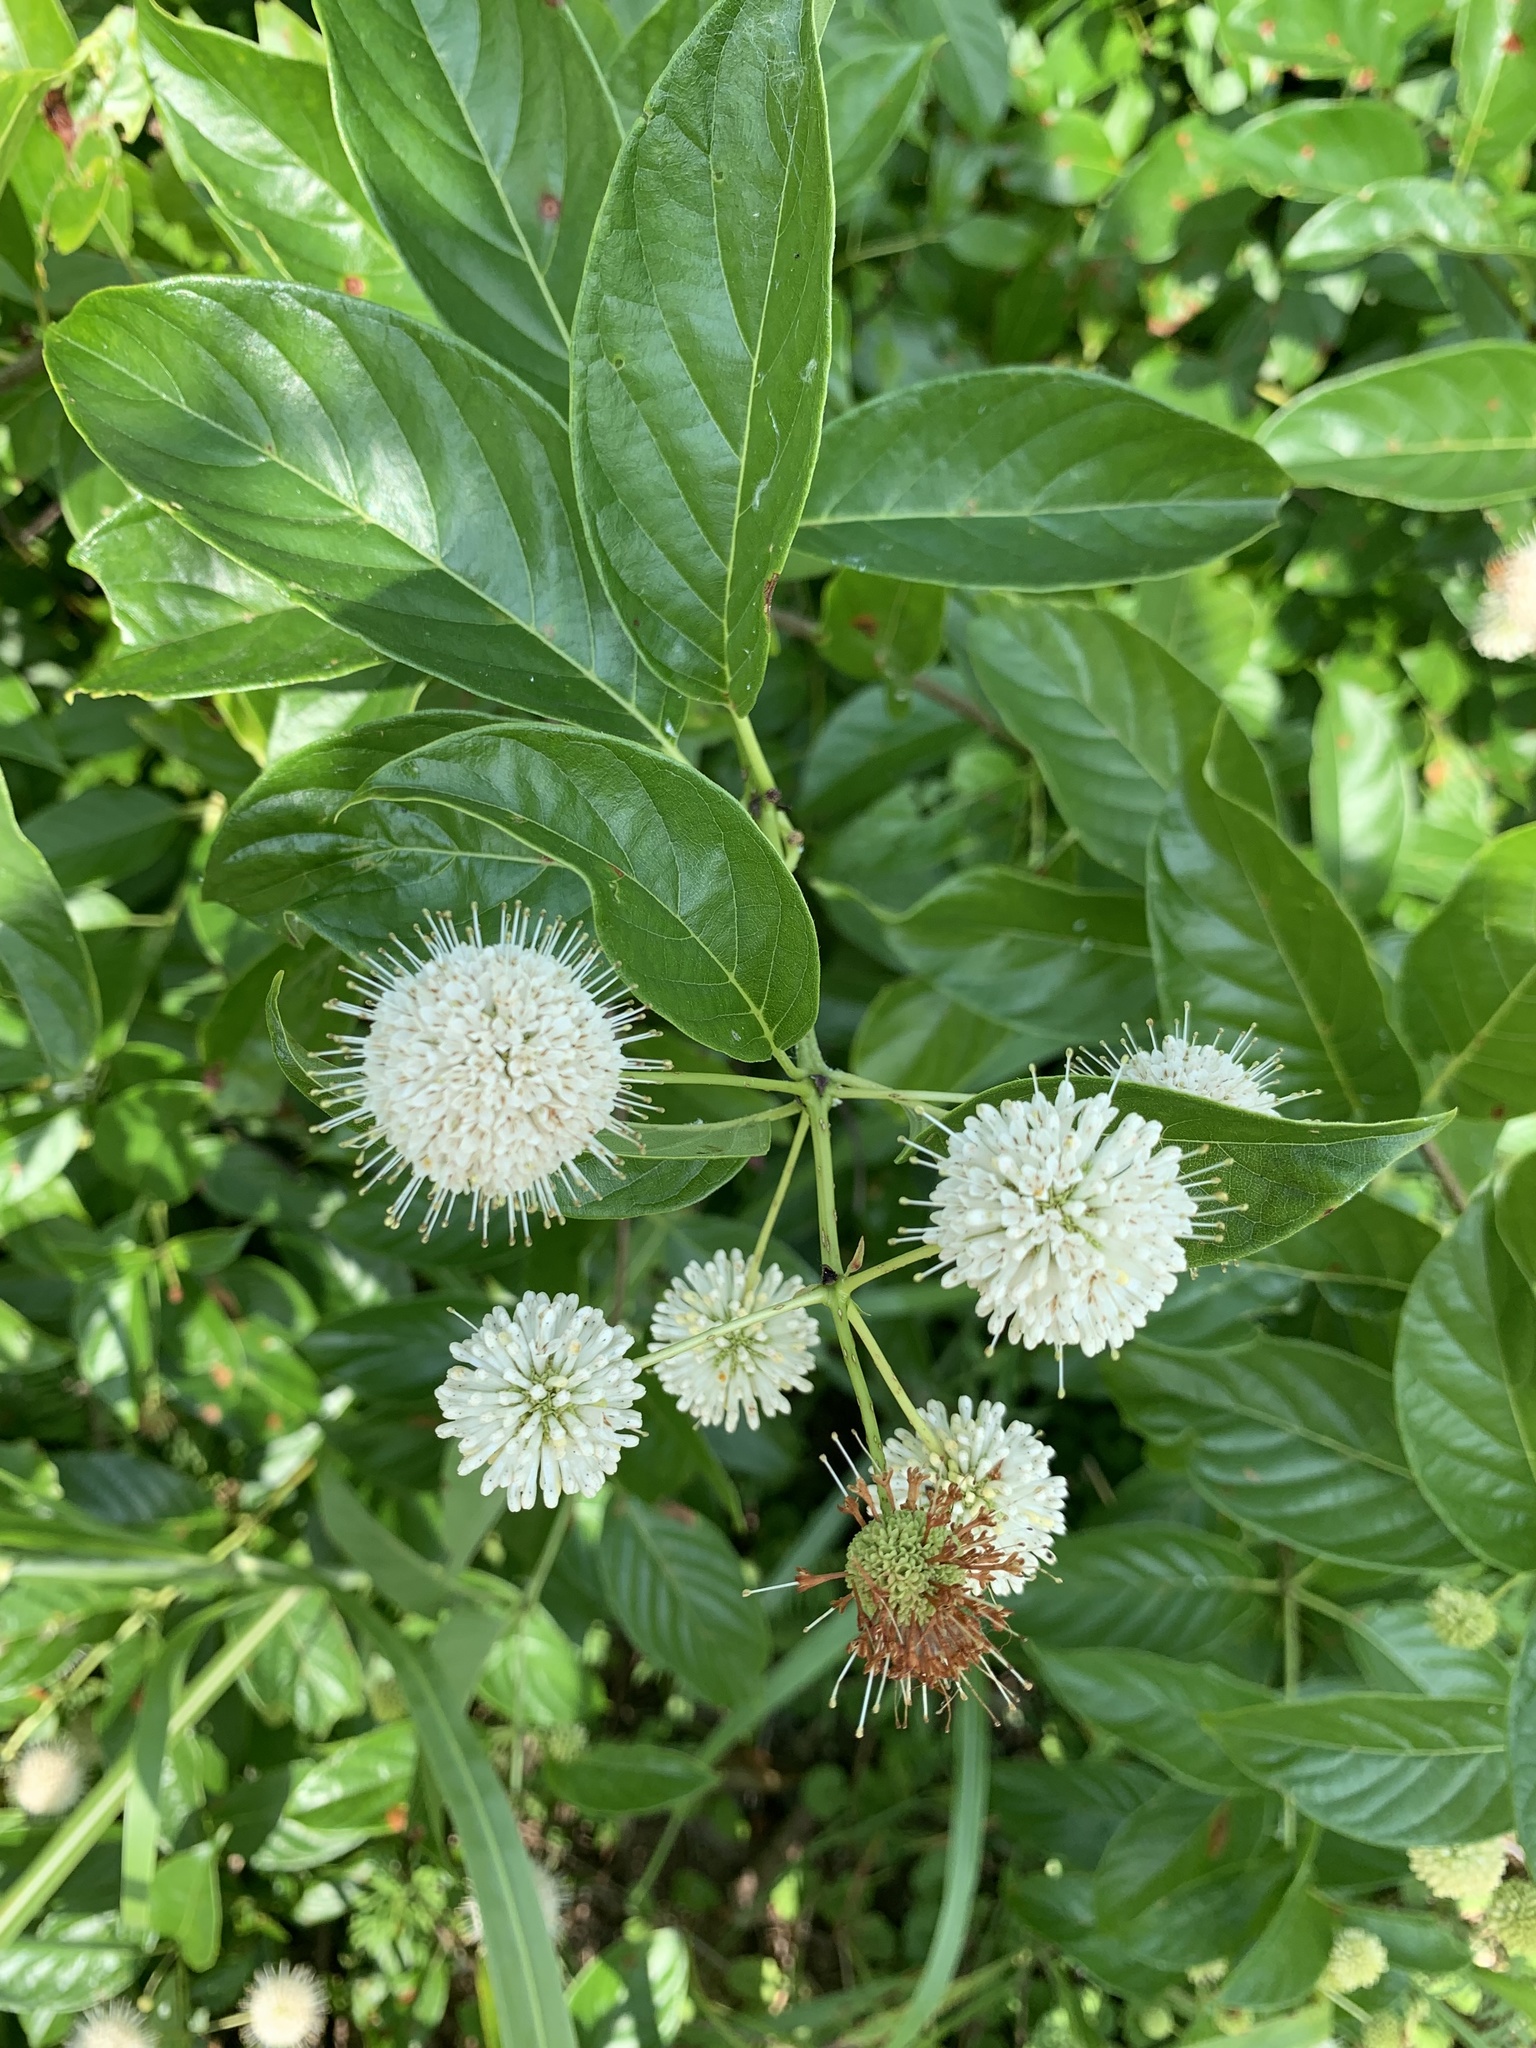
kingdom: Plantae
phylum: Tracheophyta
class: Magnoliopsida
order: Gentianales
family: Rubiaceae
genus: Cephalanthus
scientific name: Cephalanthus occidentalis
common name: Button-willow
